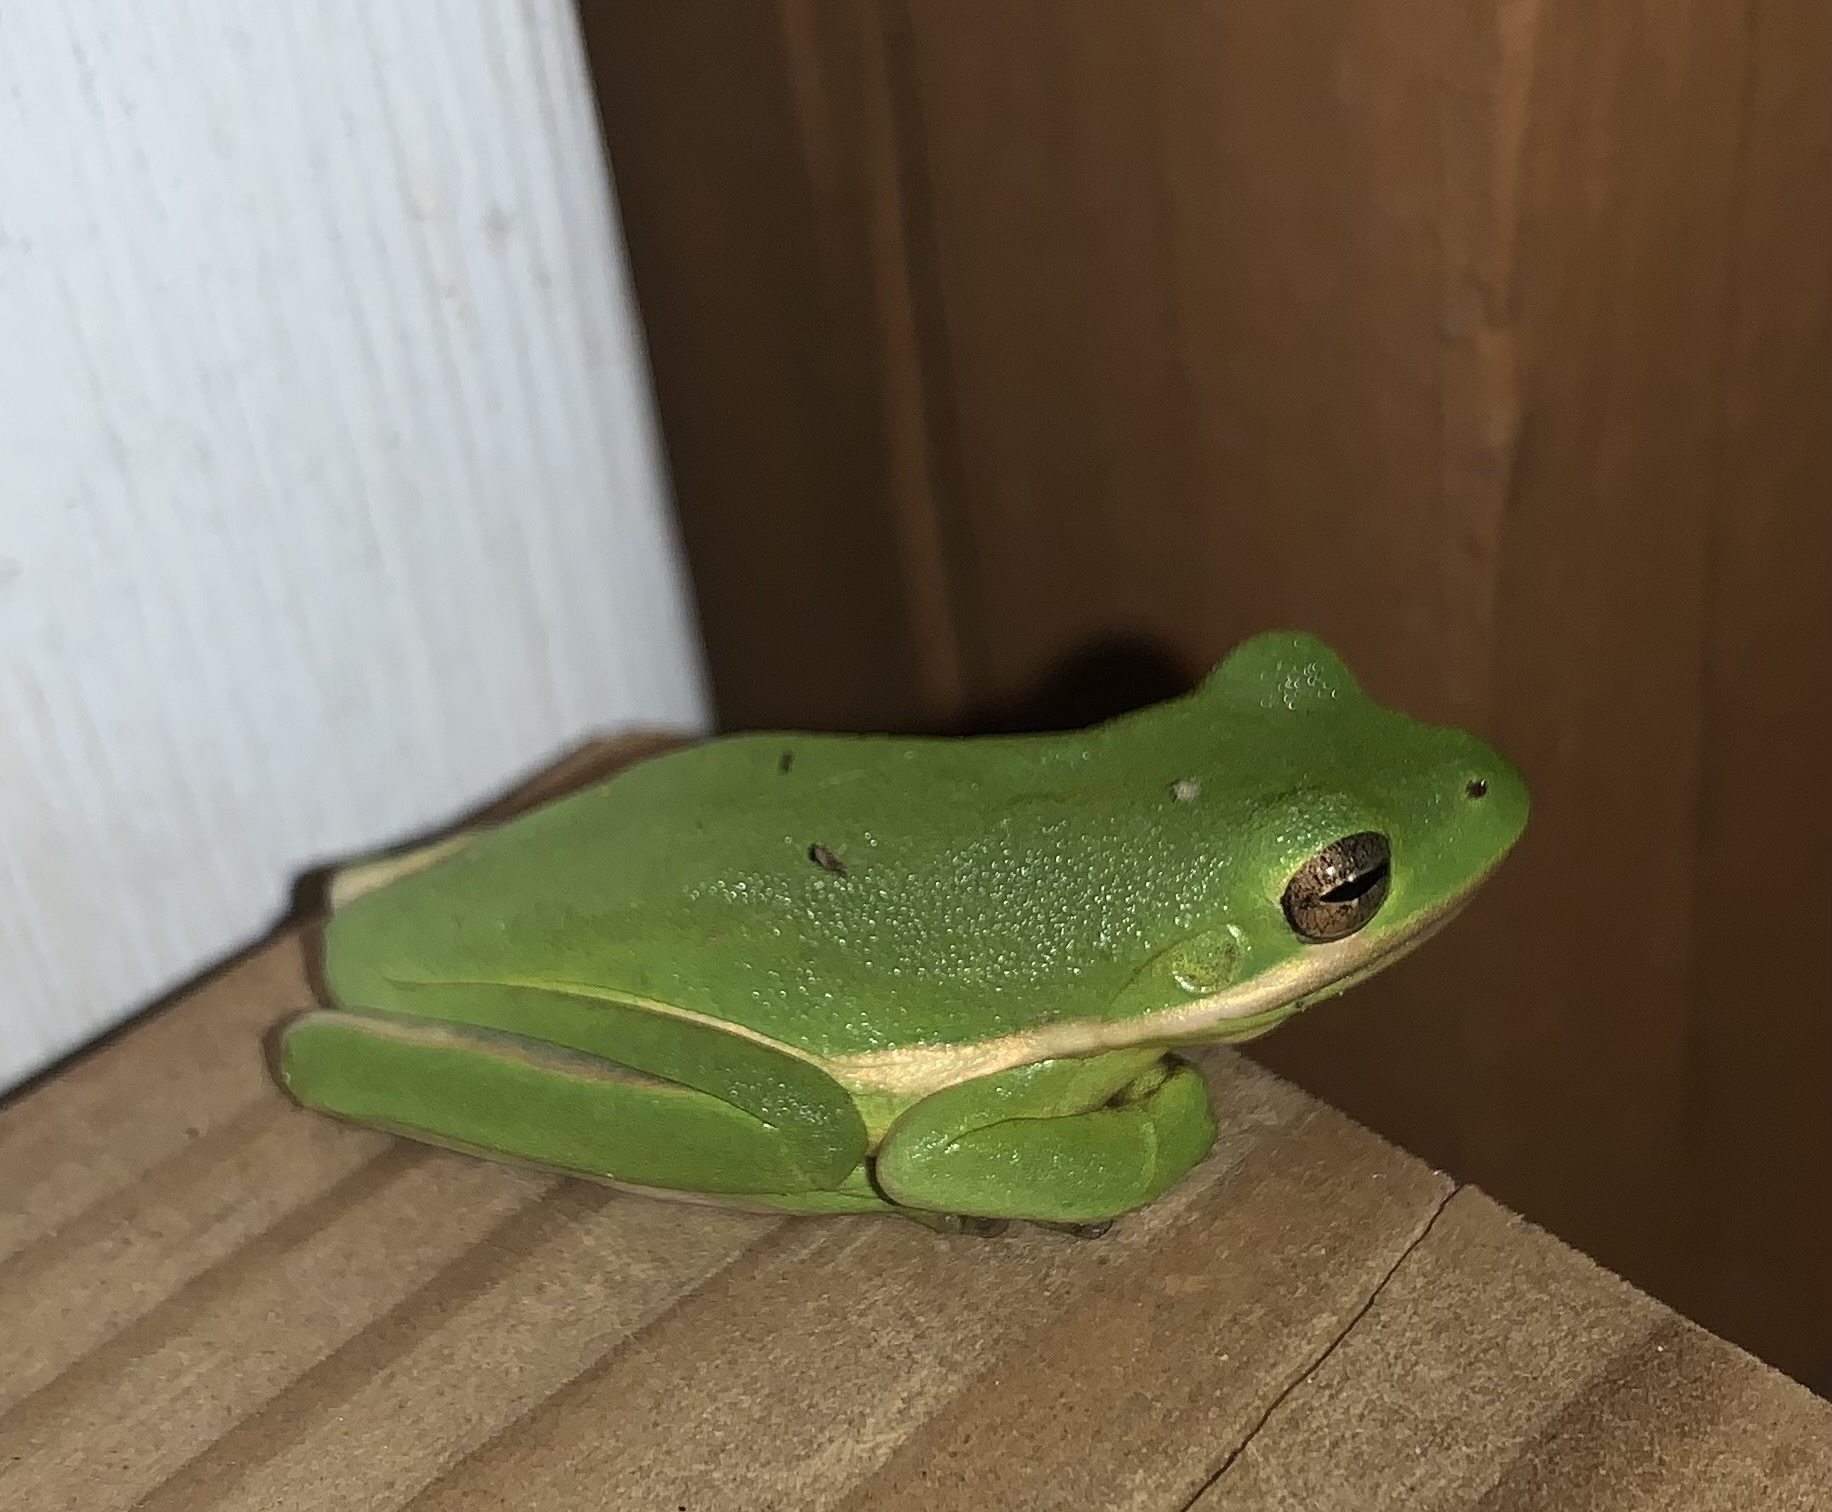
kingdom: Animalia
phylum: Chordata
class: Amphibia
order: Anura
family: Hylidae
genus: Dryophytes
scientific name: Dryophytes cinereus
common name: Green treefrog
